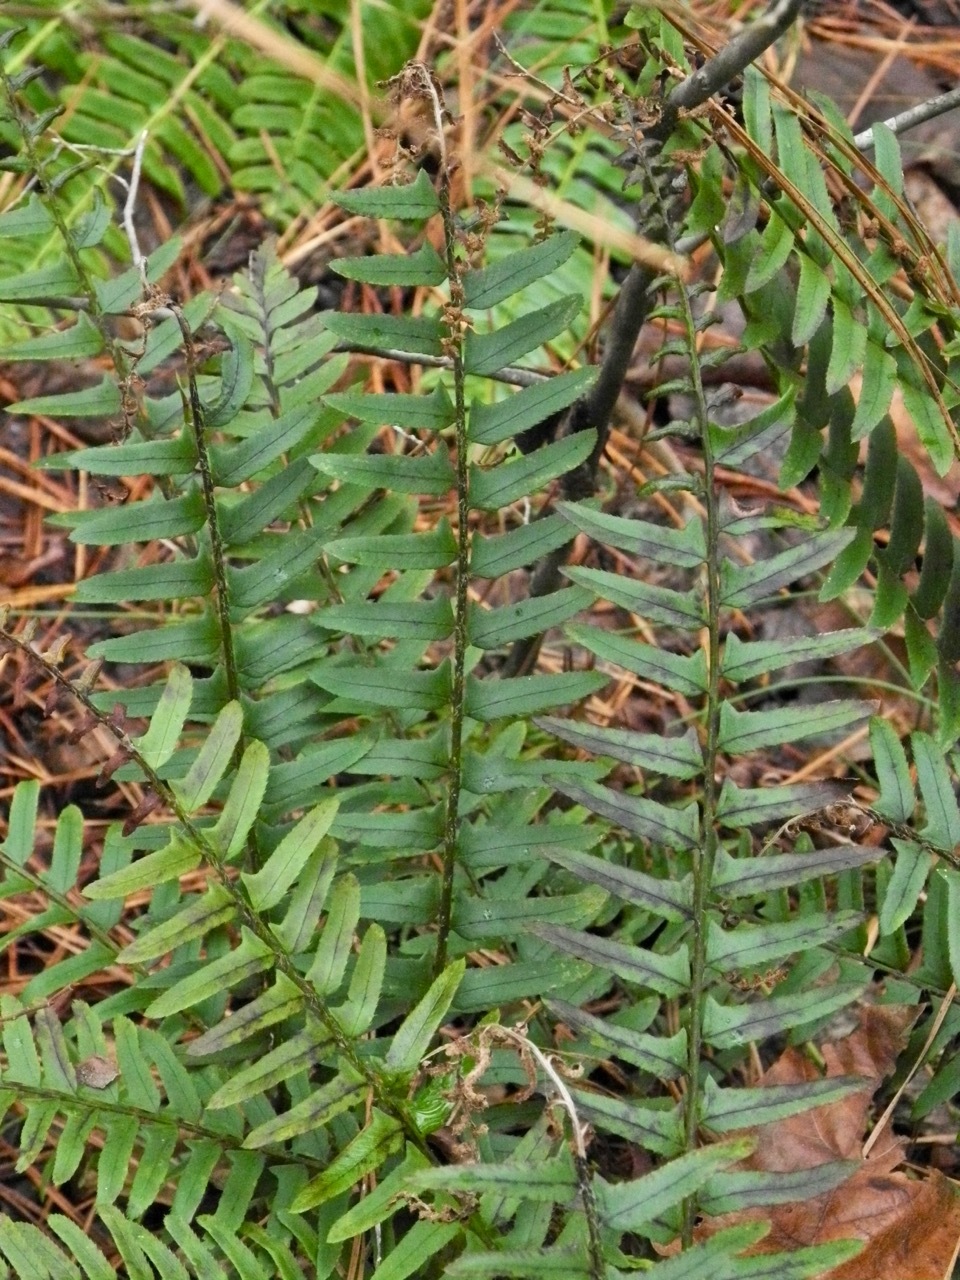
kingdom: Plantae
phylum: Tracheophyta
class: Polypodiopsida
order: Polypodiales
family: Dryopteridaceae
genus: Polystichum
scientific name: Polystichum acrostichoides
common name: Christmas fern
